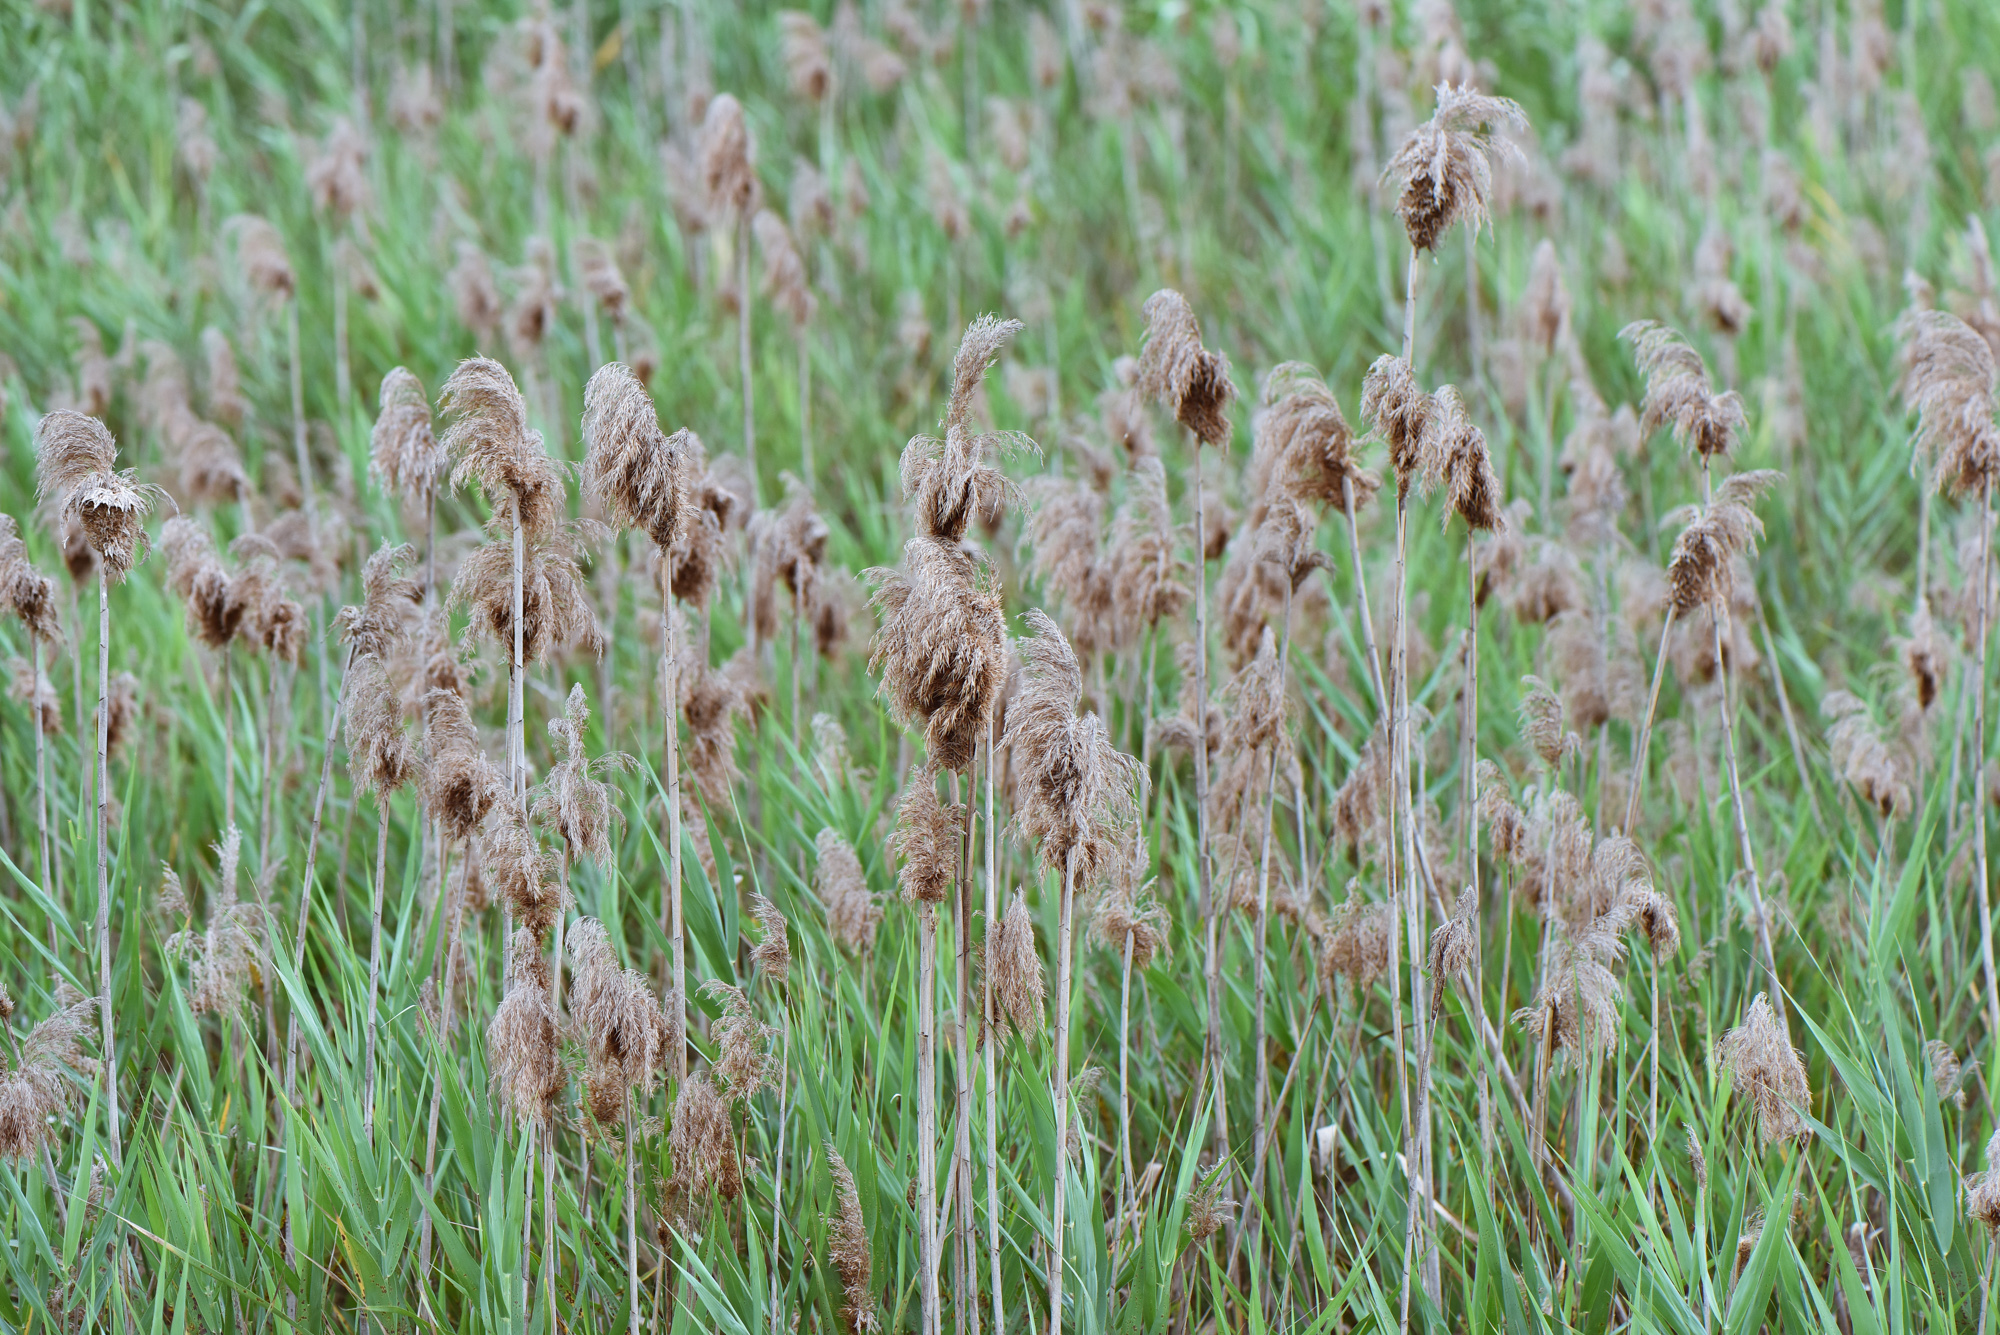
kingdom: Plantae
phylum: Tracheophyta
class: Liliopsida
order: Poales
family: Poaceae
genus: Phragmites
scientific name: Phragmites australis
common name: Common reed
